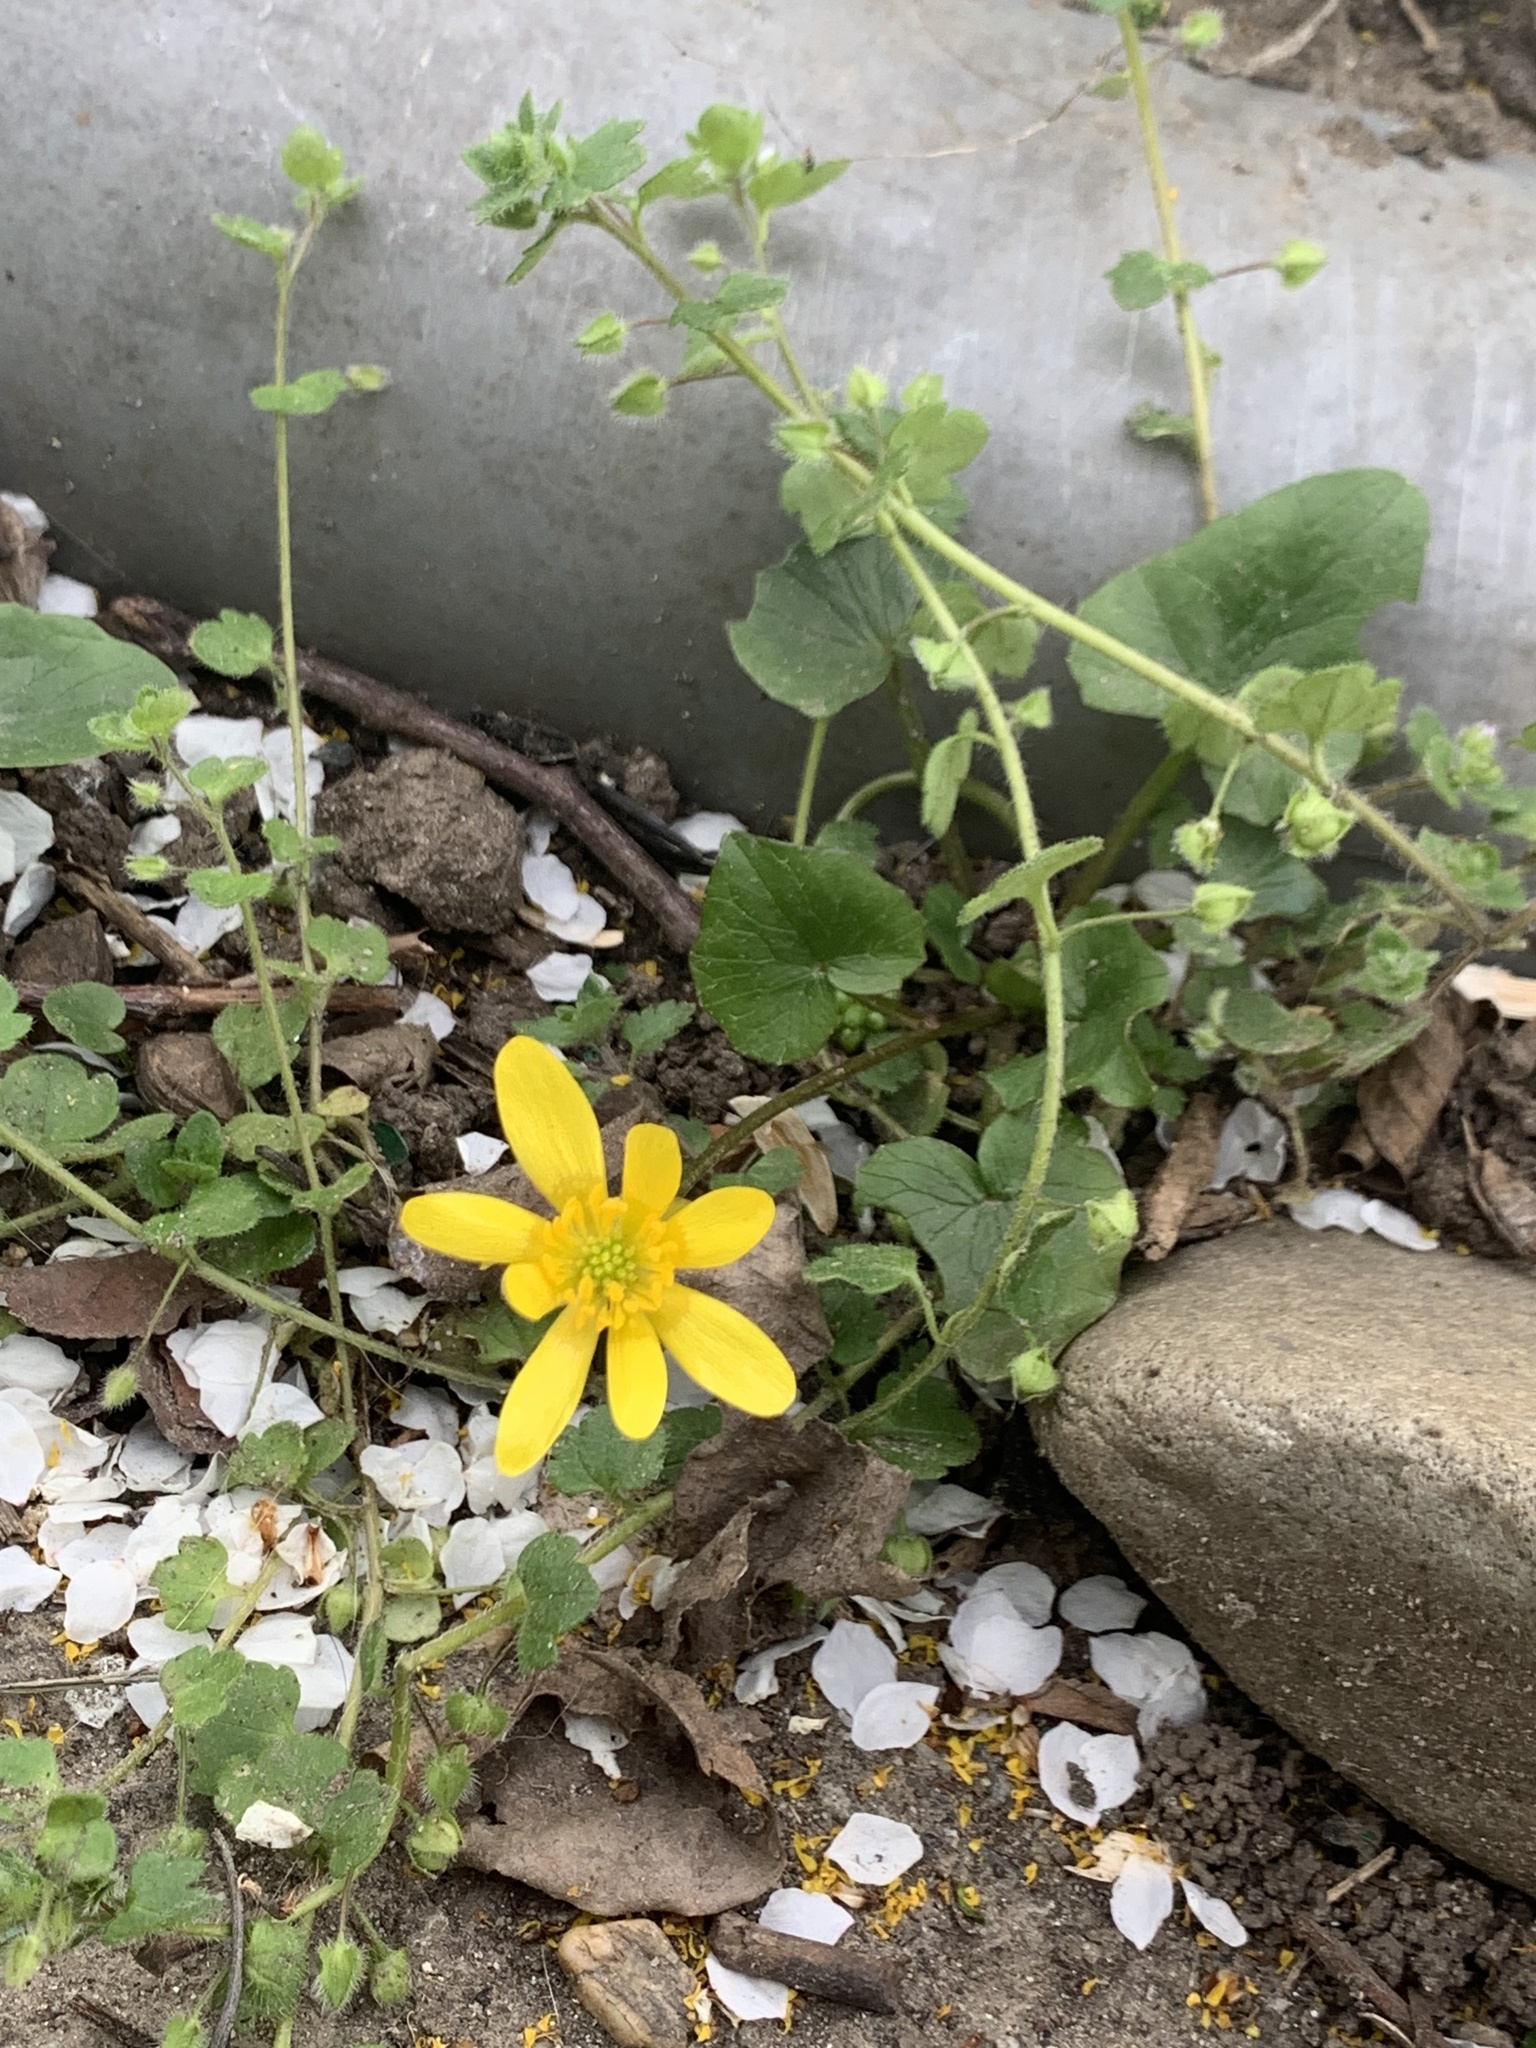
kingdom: Plantae
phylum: Tracheophyta
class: Magnoliopsida
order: Ranunculales
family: Ranunculaceae
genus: Ficaria
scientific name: Ficaria verna
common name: Lesser celandine
